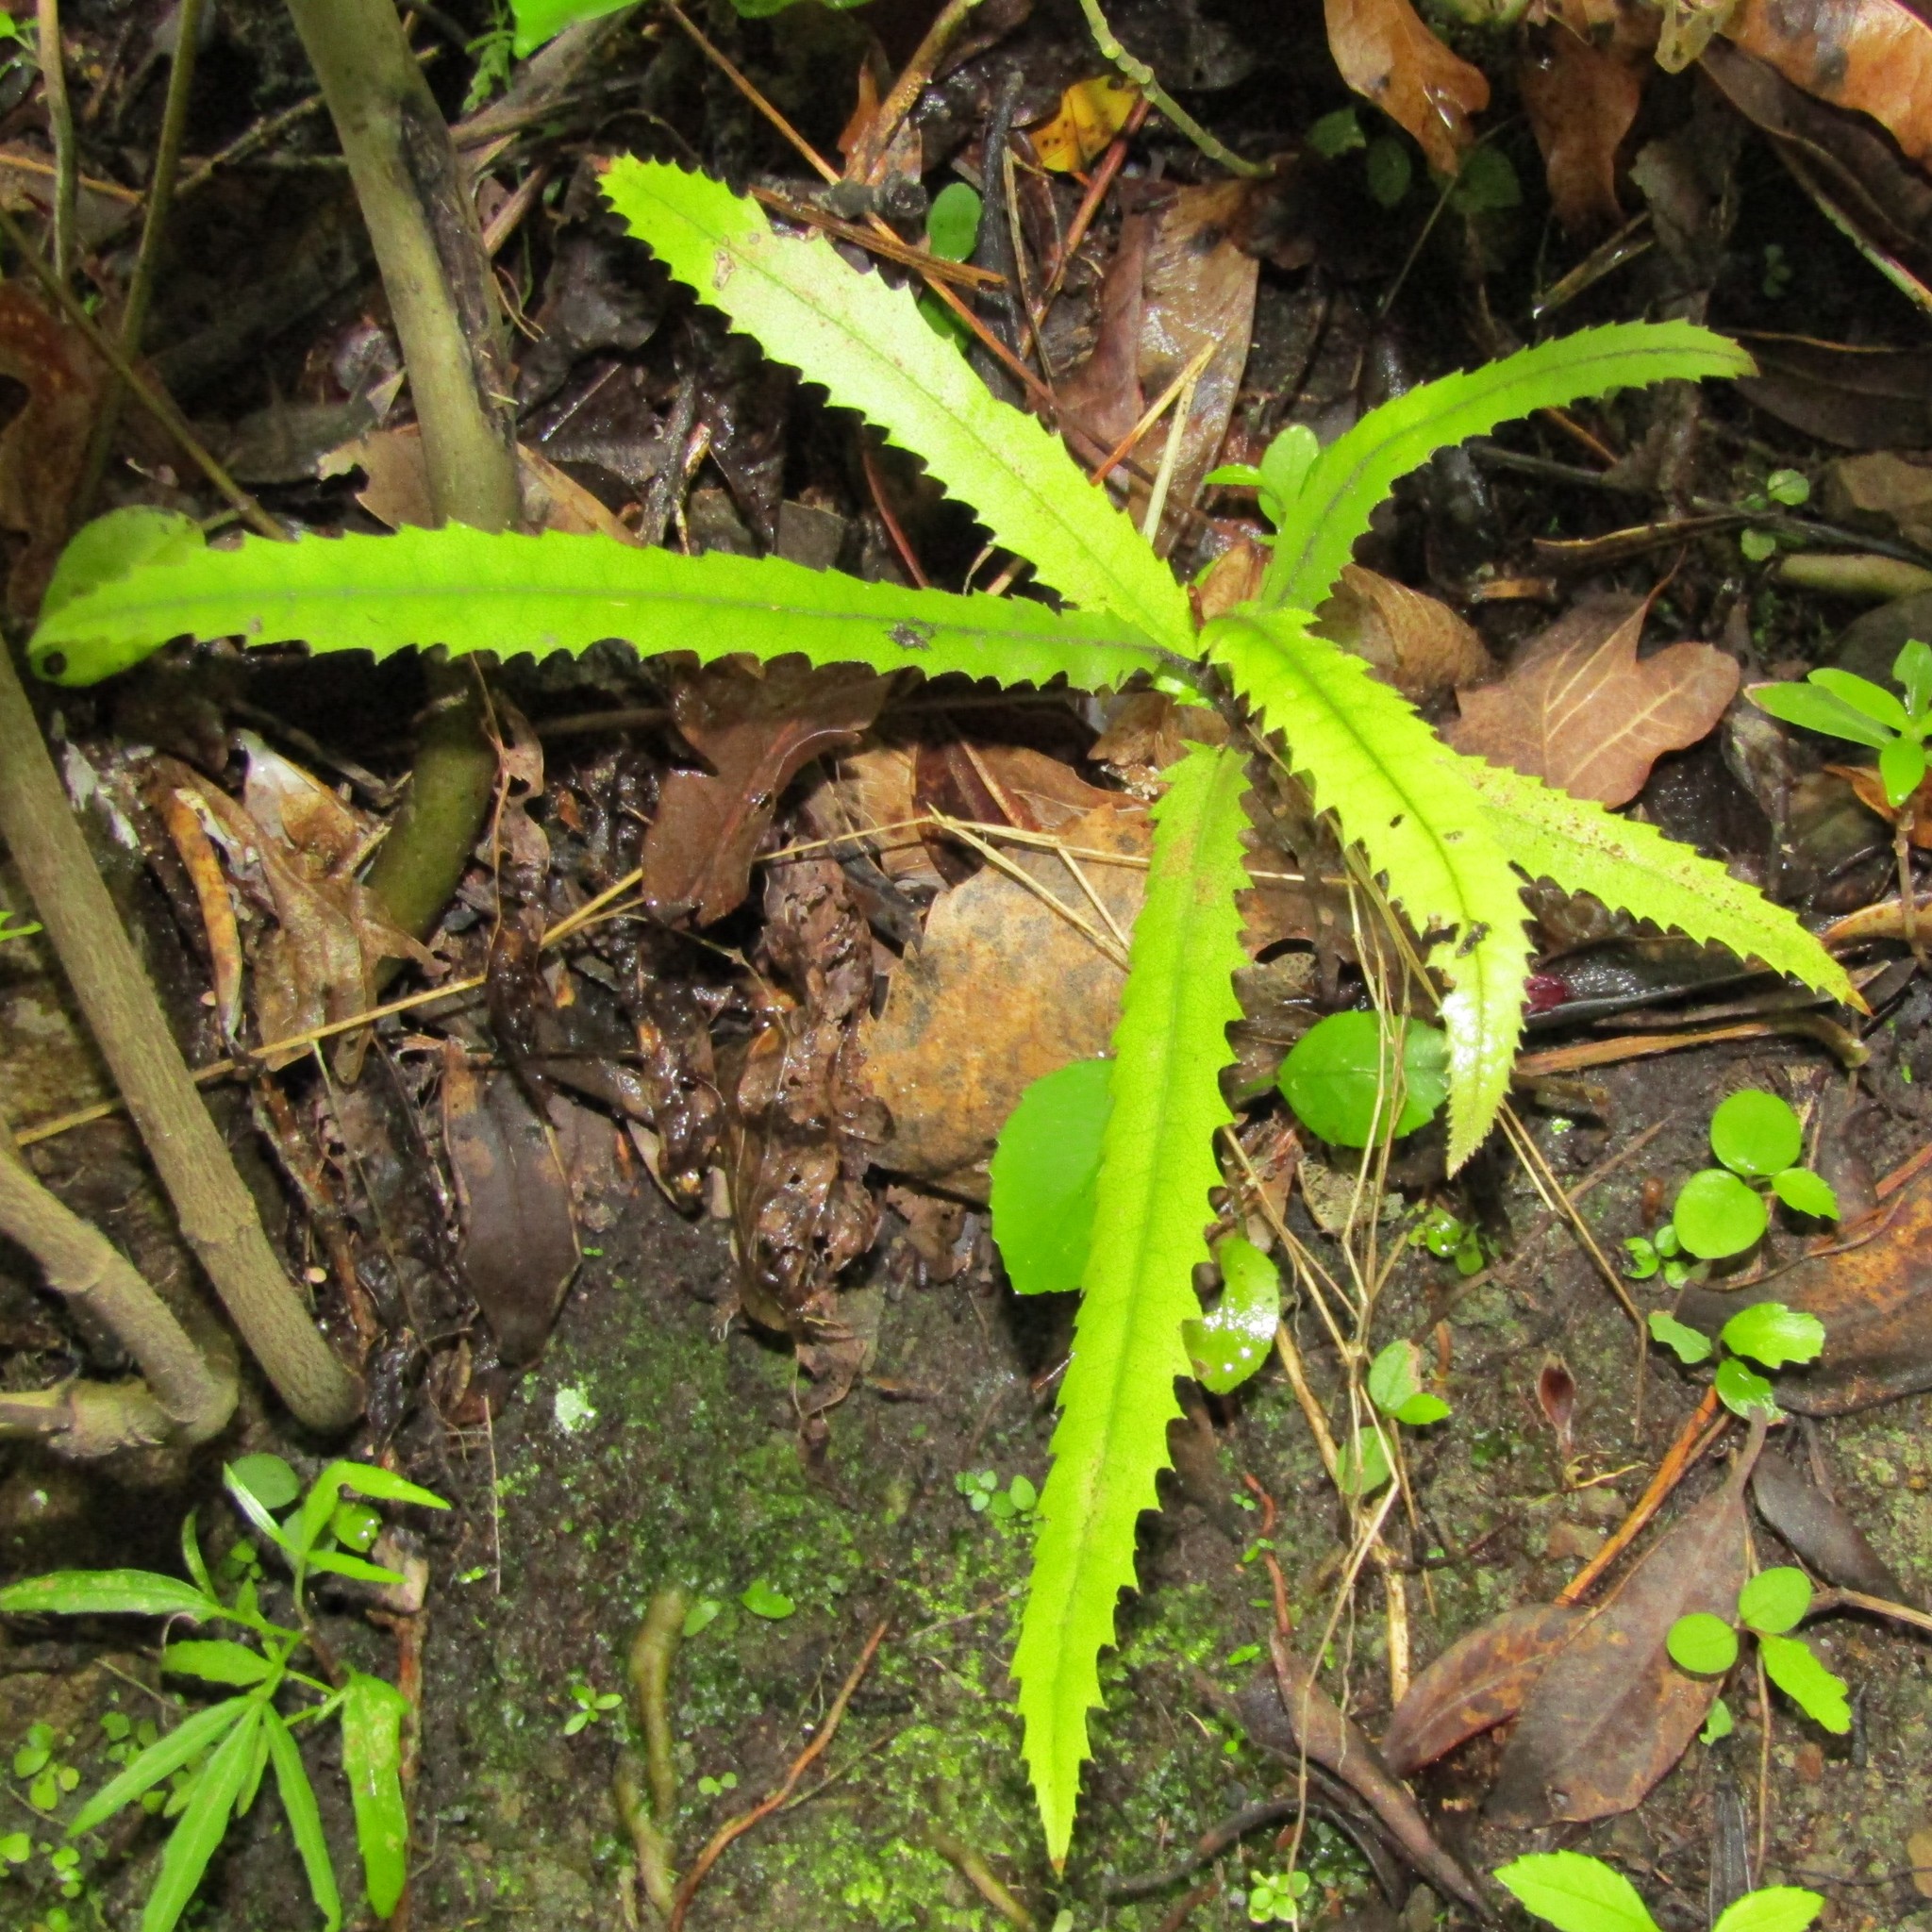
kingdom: Plantae
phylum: Tracheophyta
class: Magnoliopsida
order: Proteales
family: Proteaceae
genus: Knightia
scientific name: Knightia excelsa
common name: New zealand-honeysuckle
